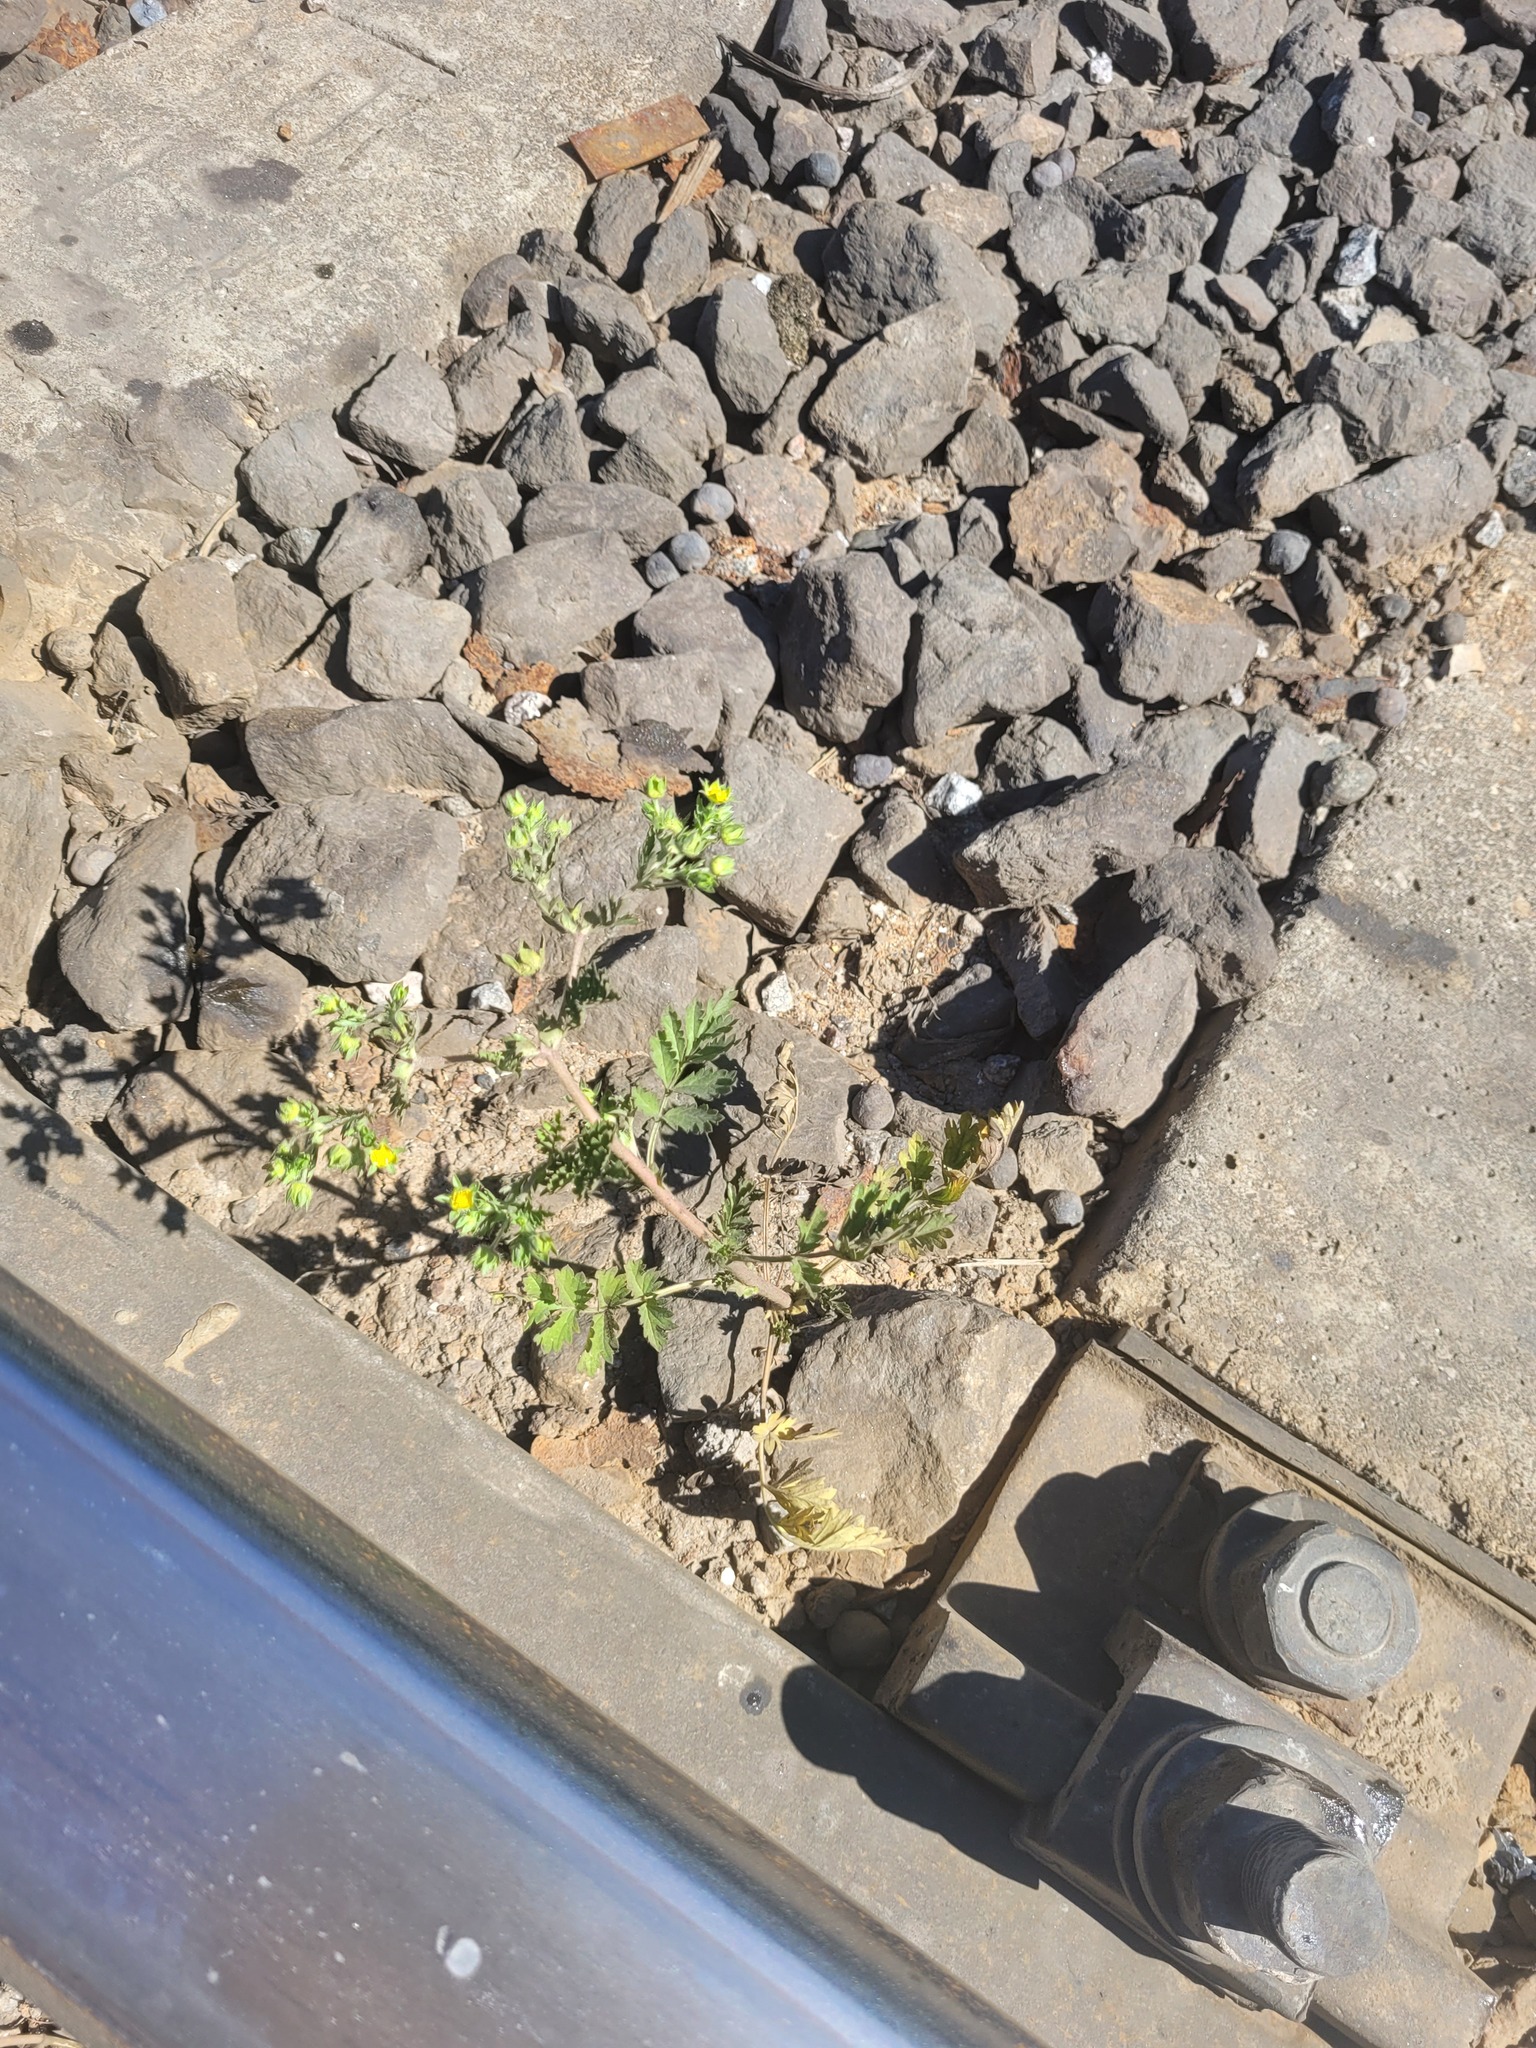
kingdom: Plantae
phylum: Tracheophyta
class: Magnoliopsida
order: Rosales
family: Rosaceae
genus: Potentilla
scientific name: Potentilla supina
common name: Prostrate cinquefoil
